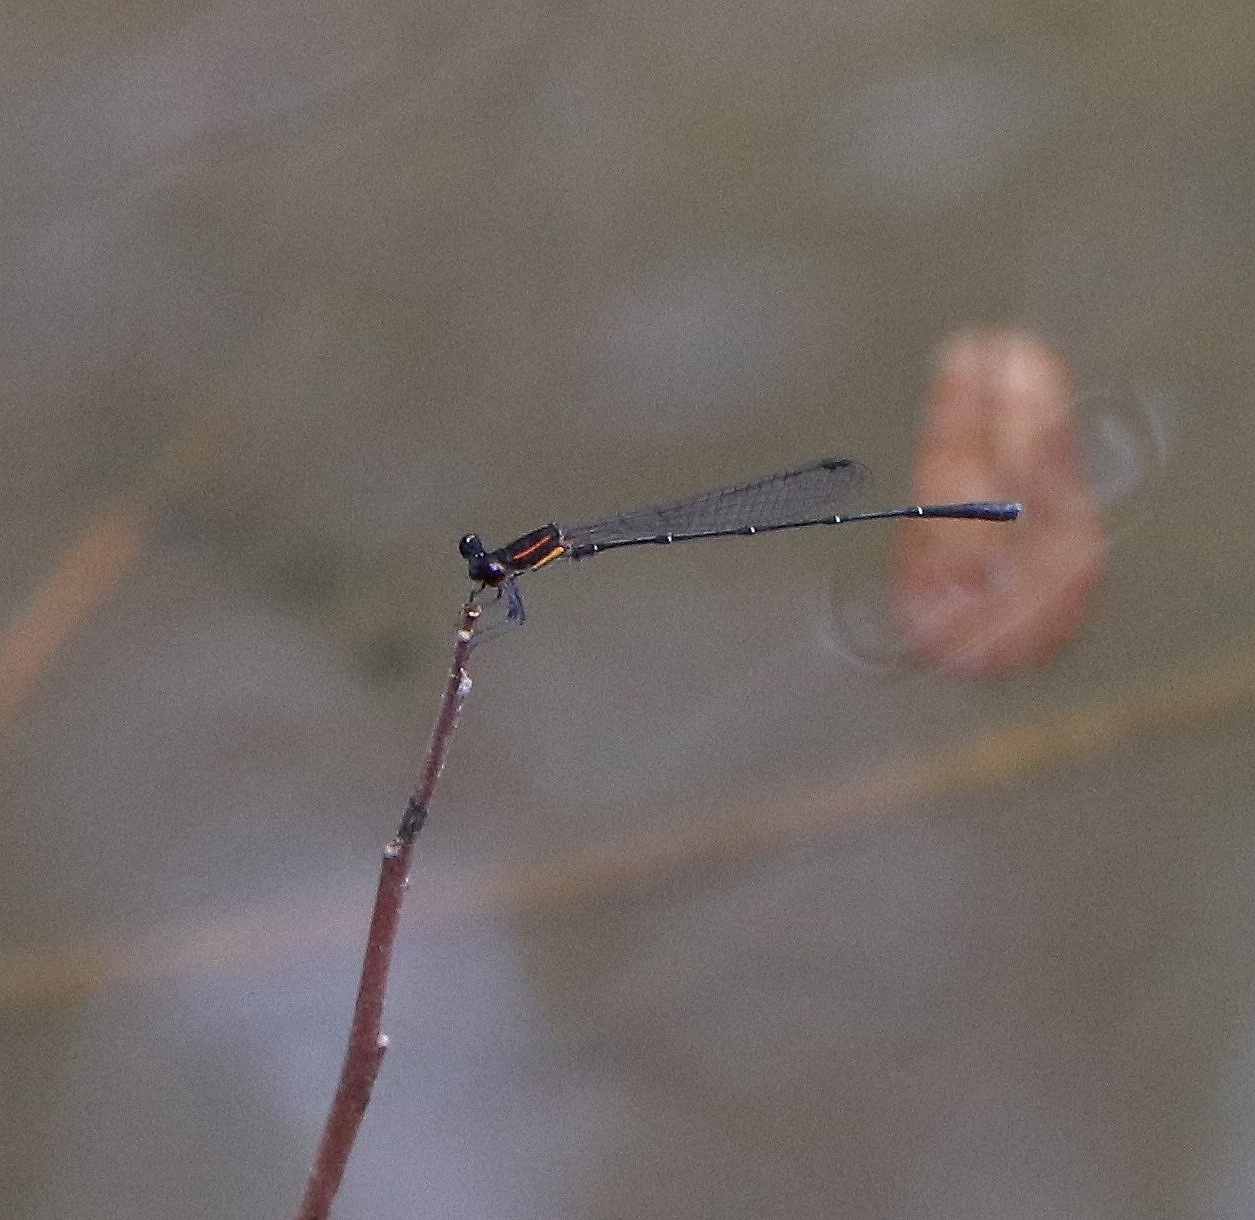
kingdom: Animalia
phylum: Arthropoda
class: Insecta
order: Odonata
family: Platycnemididae
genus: Prodasineura
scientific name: Prodasineura verticalis
